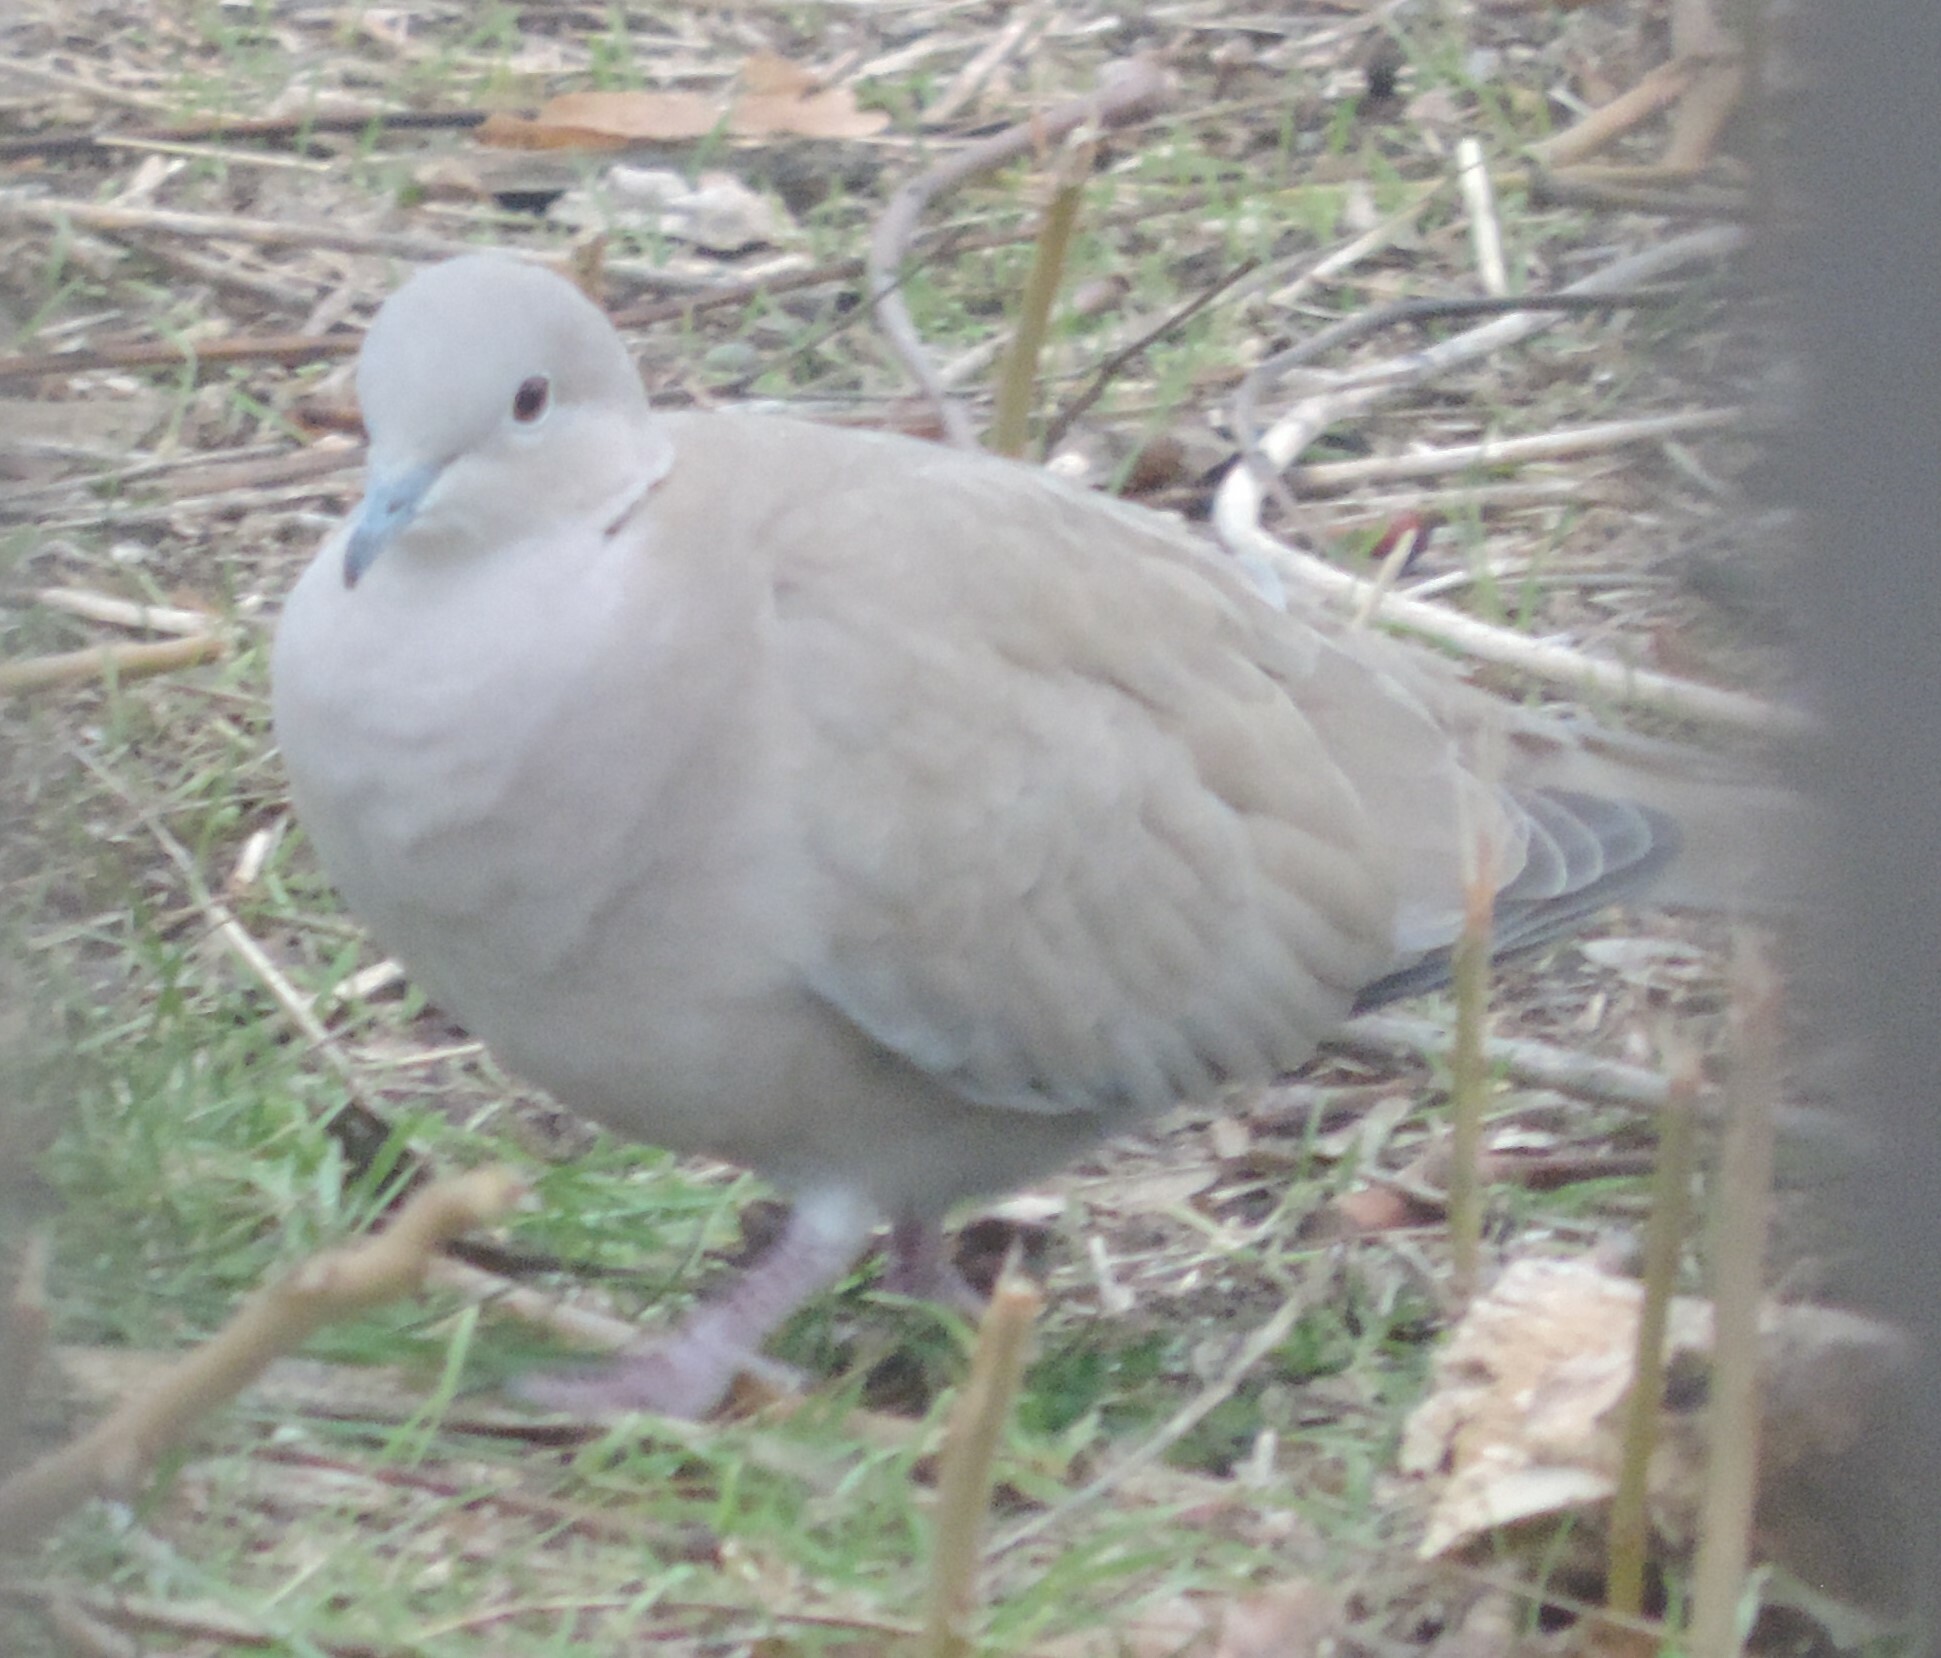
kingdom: Animalia
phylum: Chordata
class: Aves
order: Columbiformes
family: Columbidae
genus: Streptopelia
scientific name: Streptopelia decaocto
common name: Eurasian collared dove
